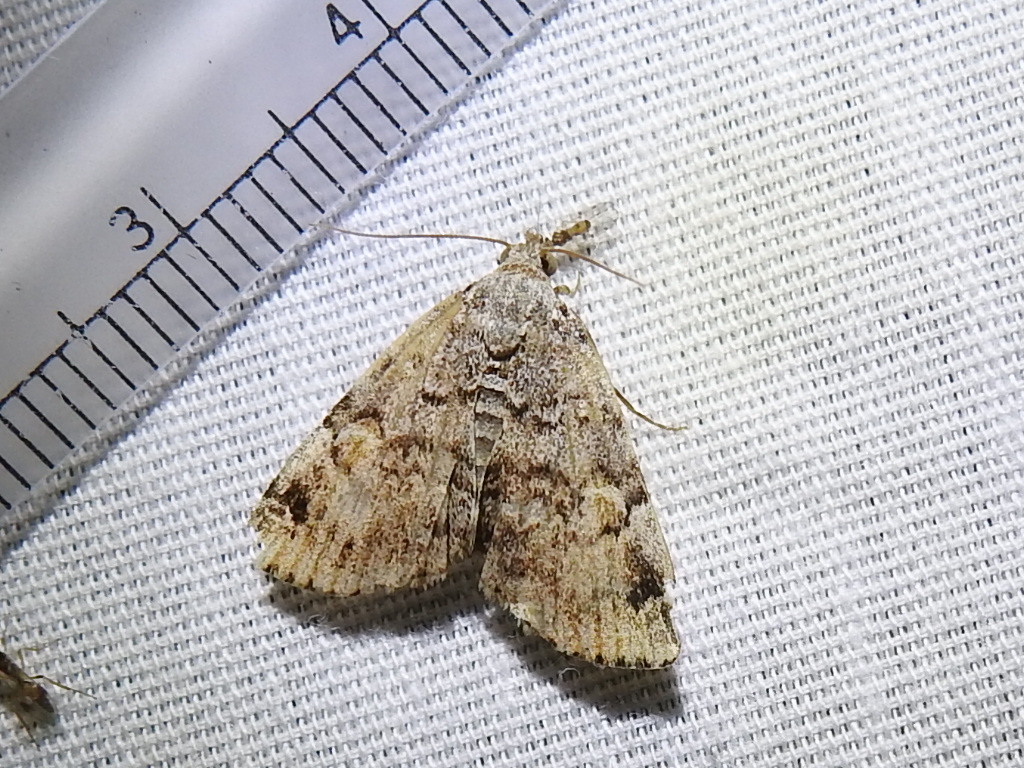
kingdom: Animalia
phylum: Arthropoda
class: Insecta
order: Lepidoptera
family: Erebidae
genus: Idia
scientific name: Idia americalis
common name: American idia moth
